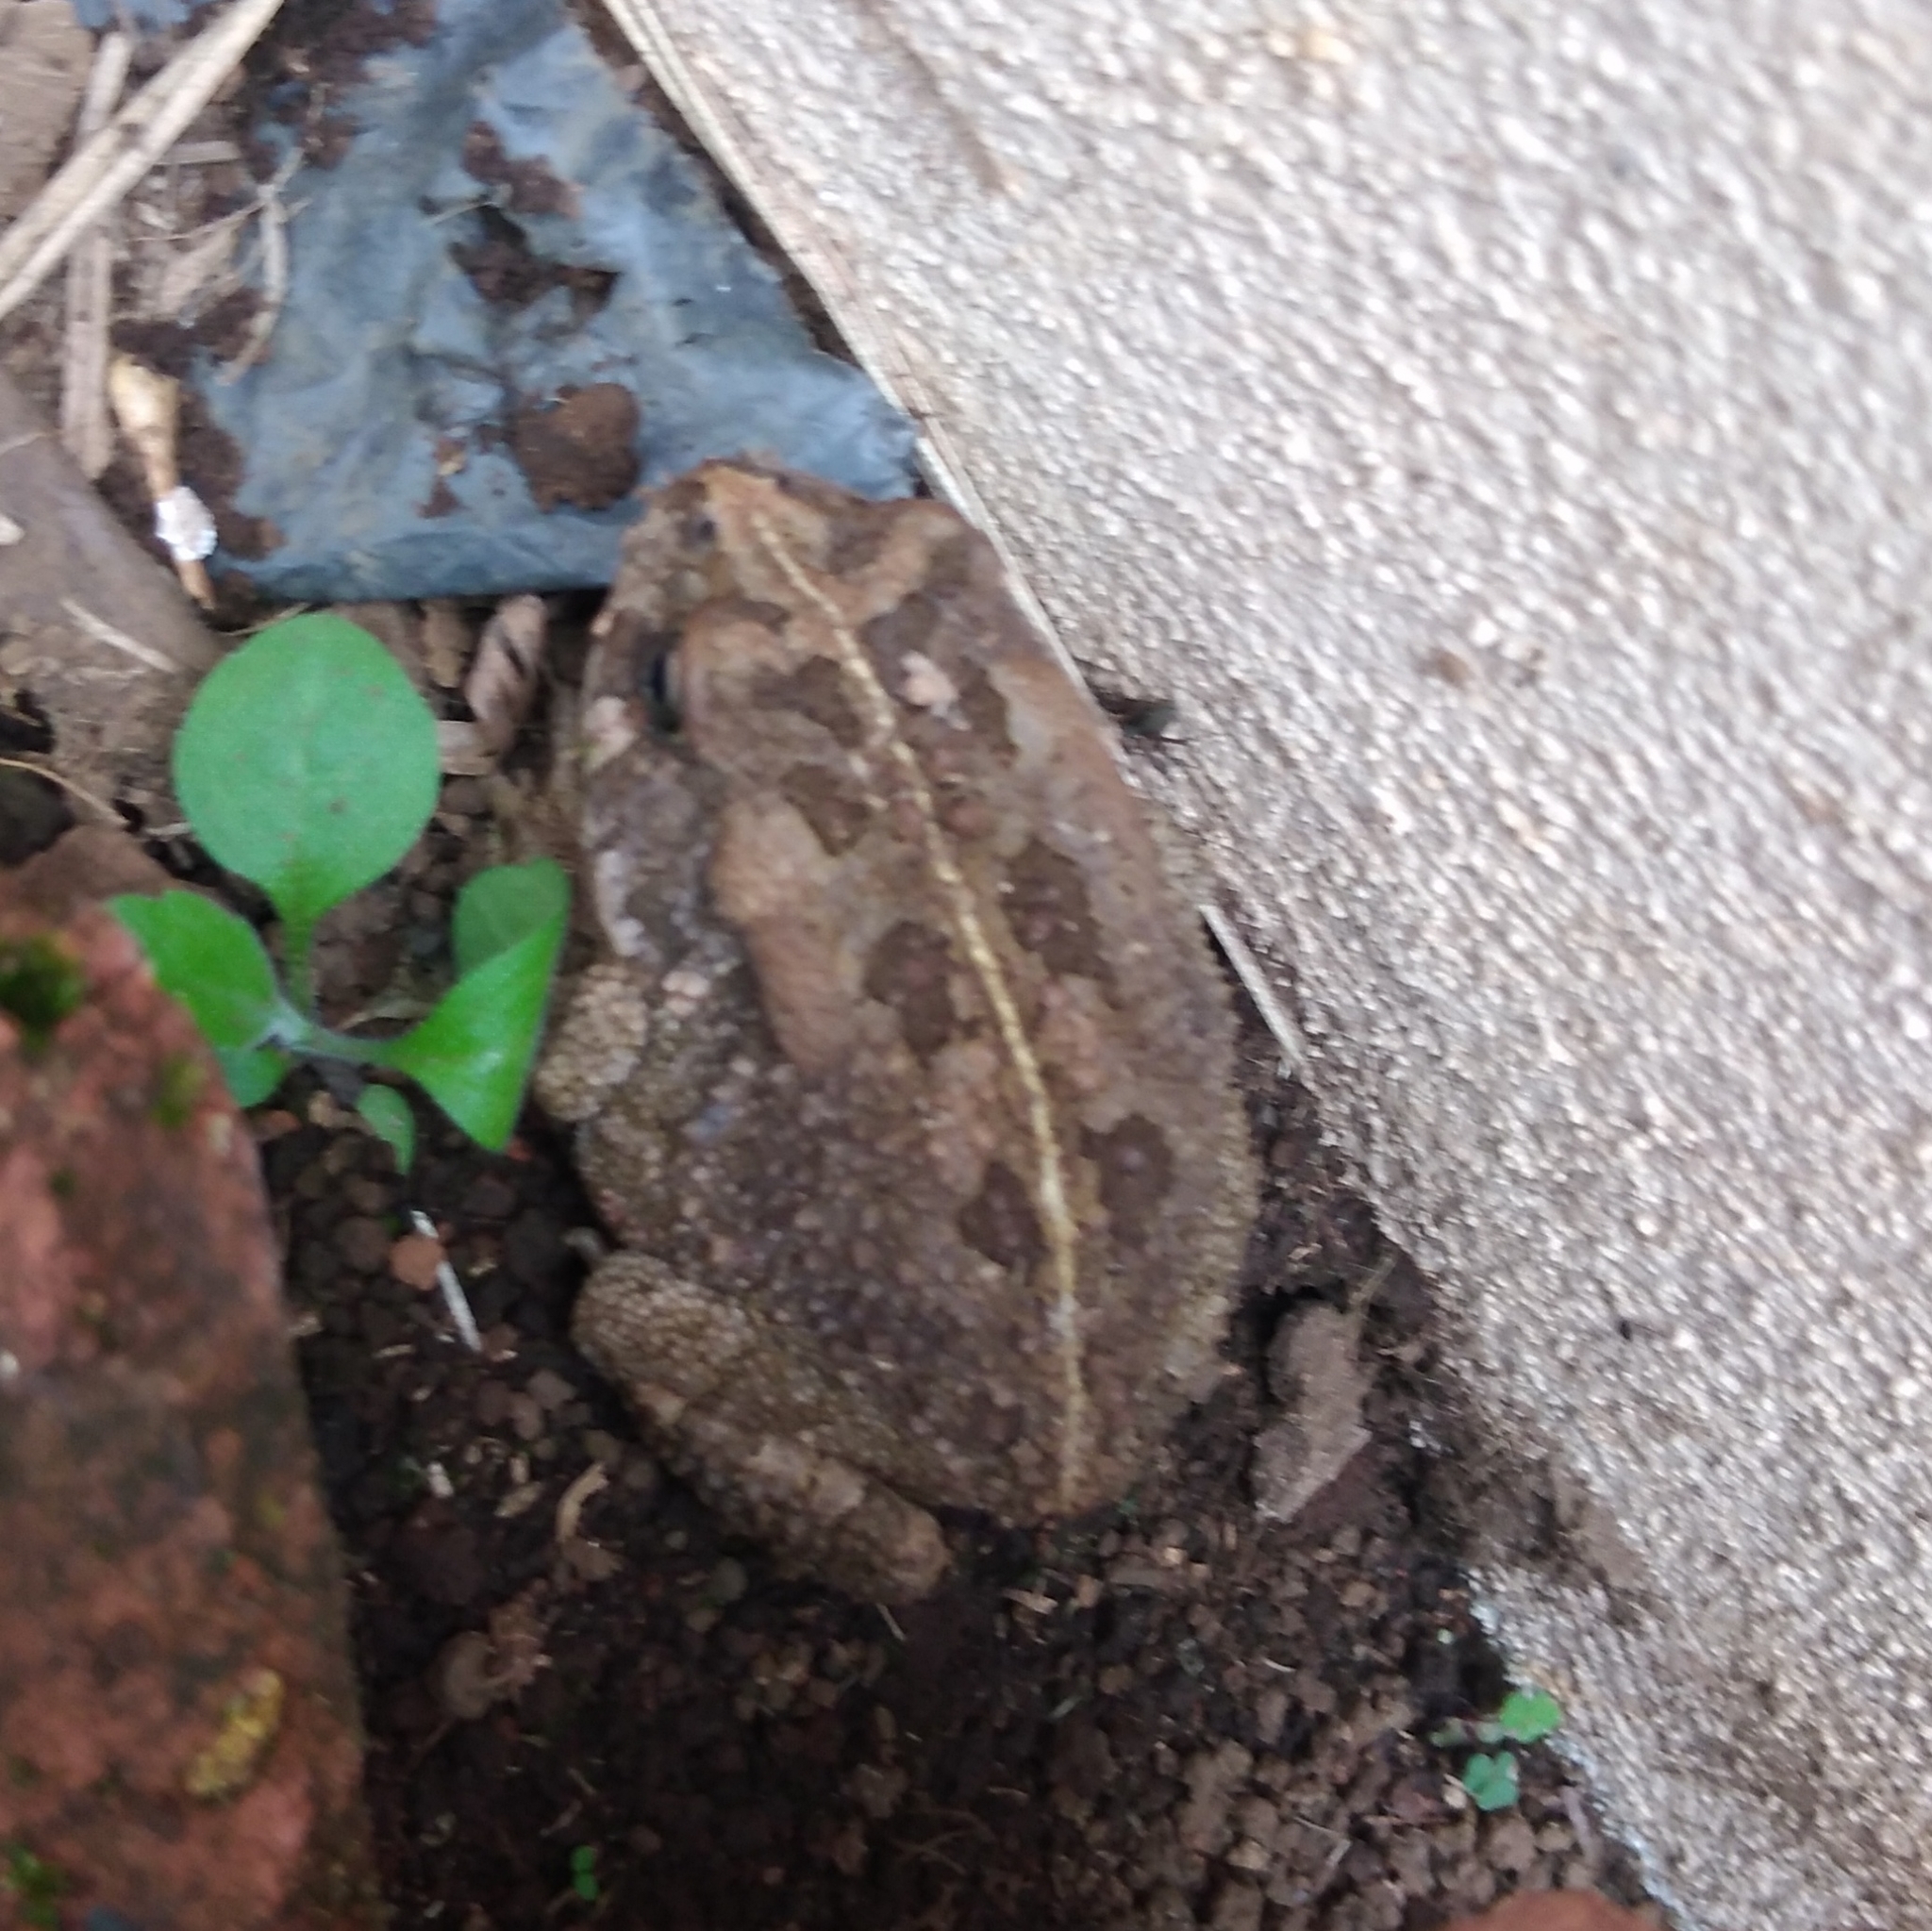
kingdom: Animalia
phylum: Chordata
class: Amphibia
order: Anura
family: Bufonidae
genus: Sclerophrys
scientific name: Sclerophrys gutturalis
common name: African common toad
